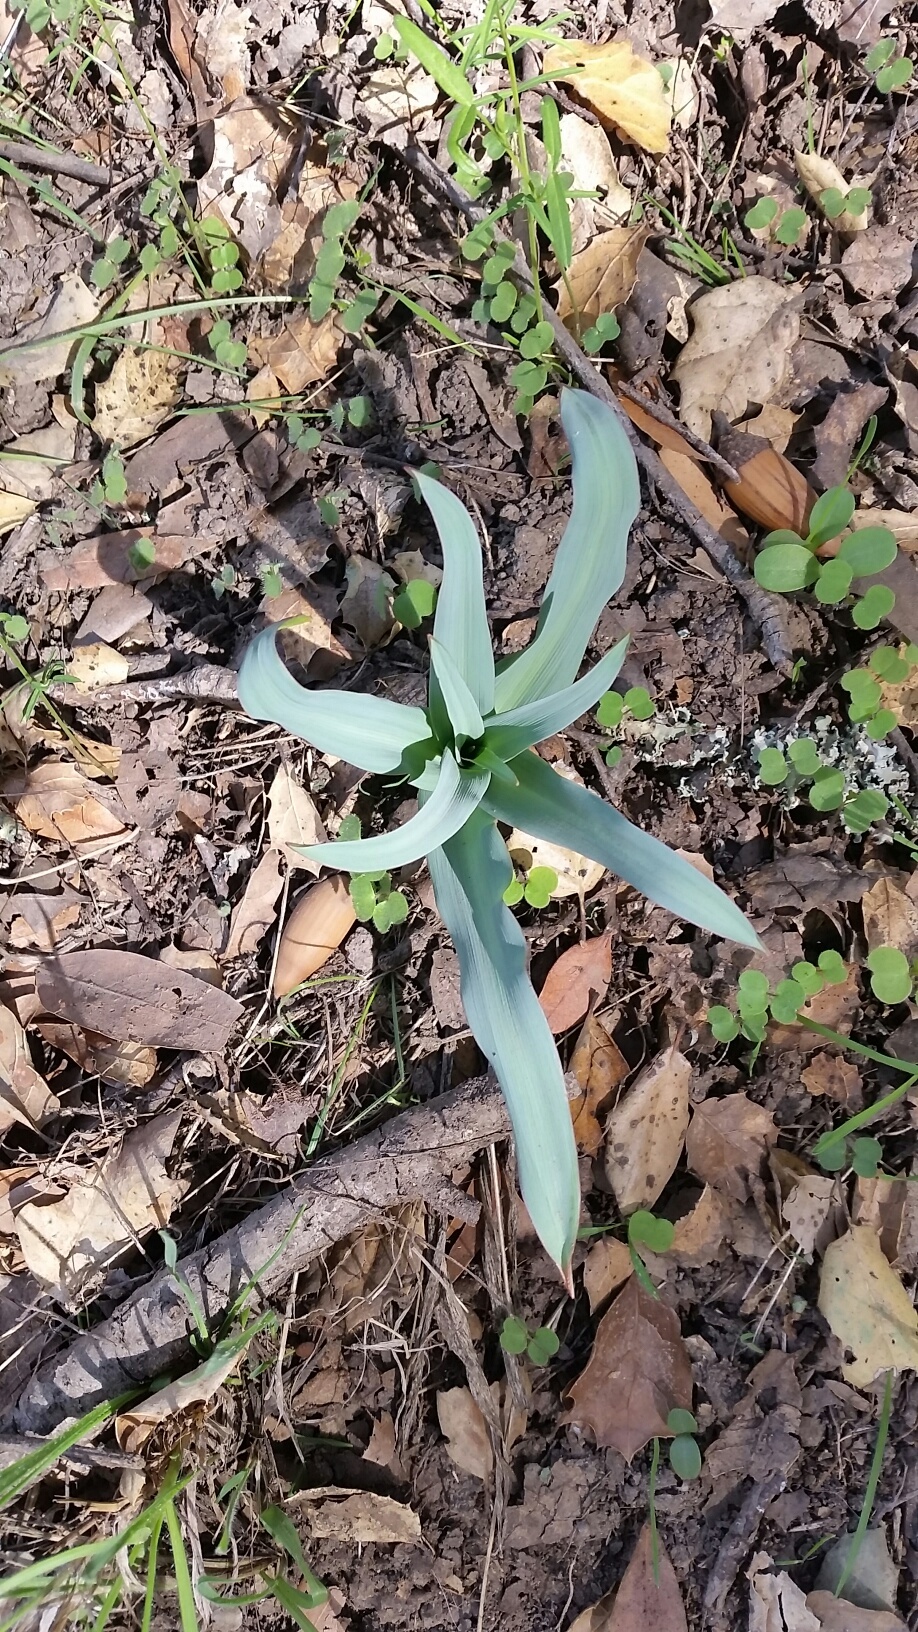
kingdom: Plantae
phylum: Tracheophyta
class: Liliopsida
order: Asparagales
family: Asparagaceae
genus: Chlorogalum
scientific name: Chlorogalum pomeridianum
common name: Amole
